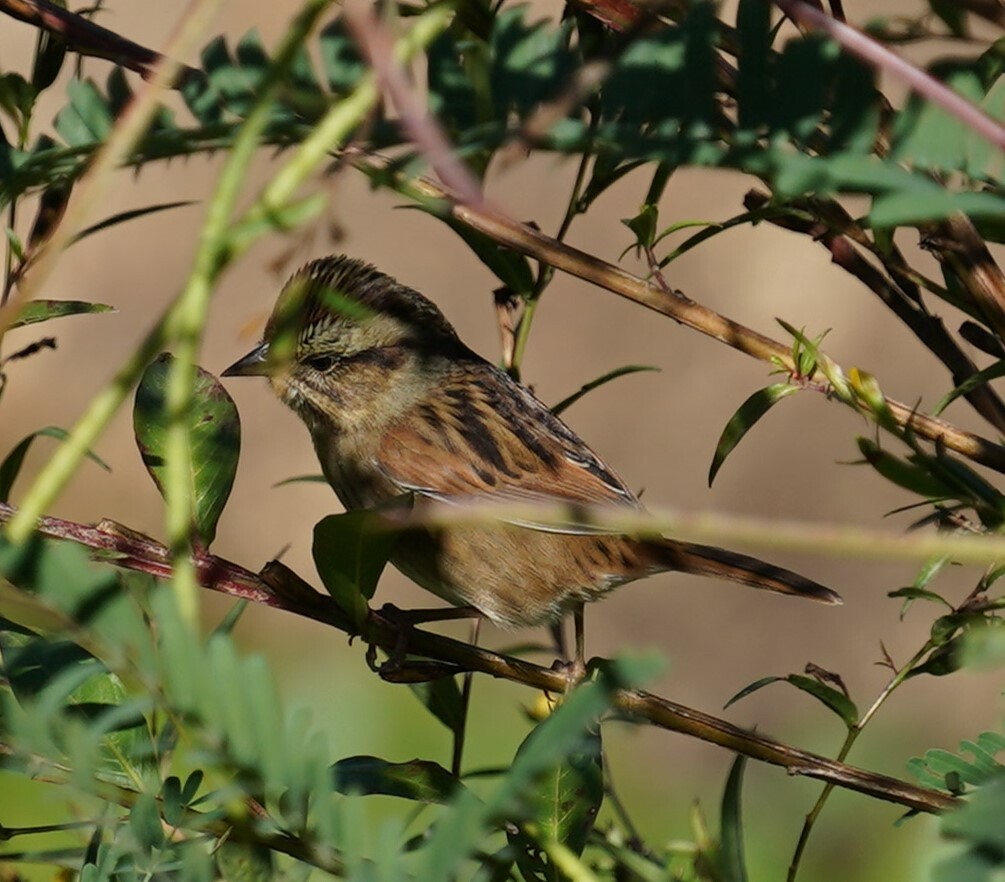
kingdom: Animalia
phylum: Chordata
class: Aves
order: Passeriformes
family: Passerellidae
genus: Melospiza
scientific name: Melospiza georgiana
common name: Swamp sparrow
